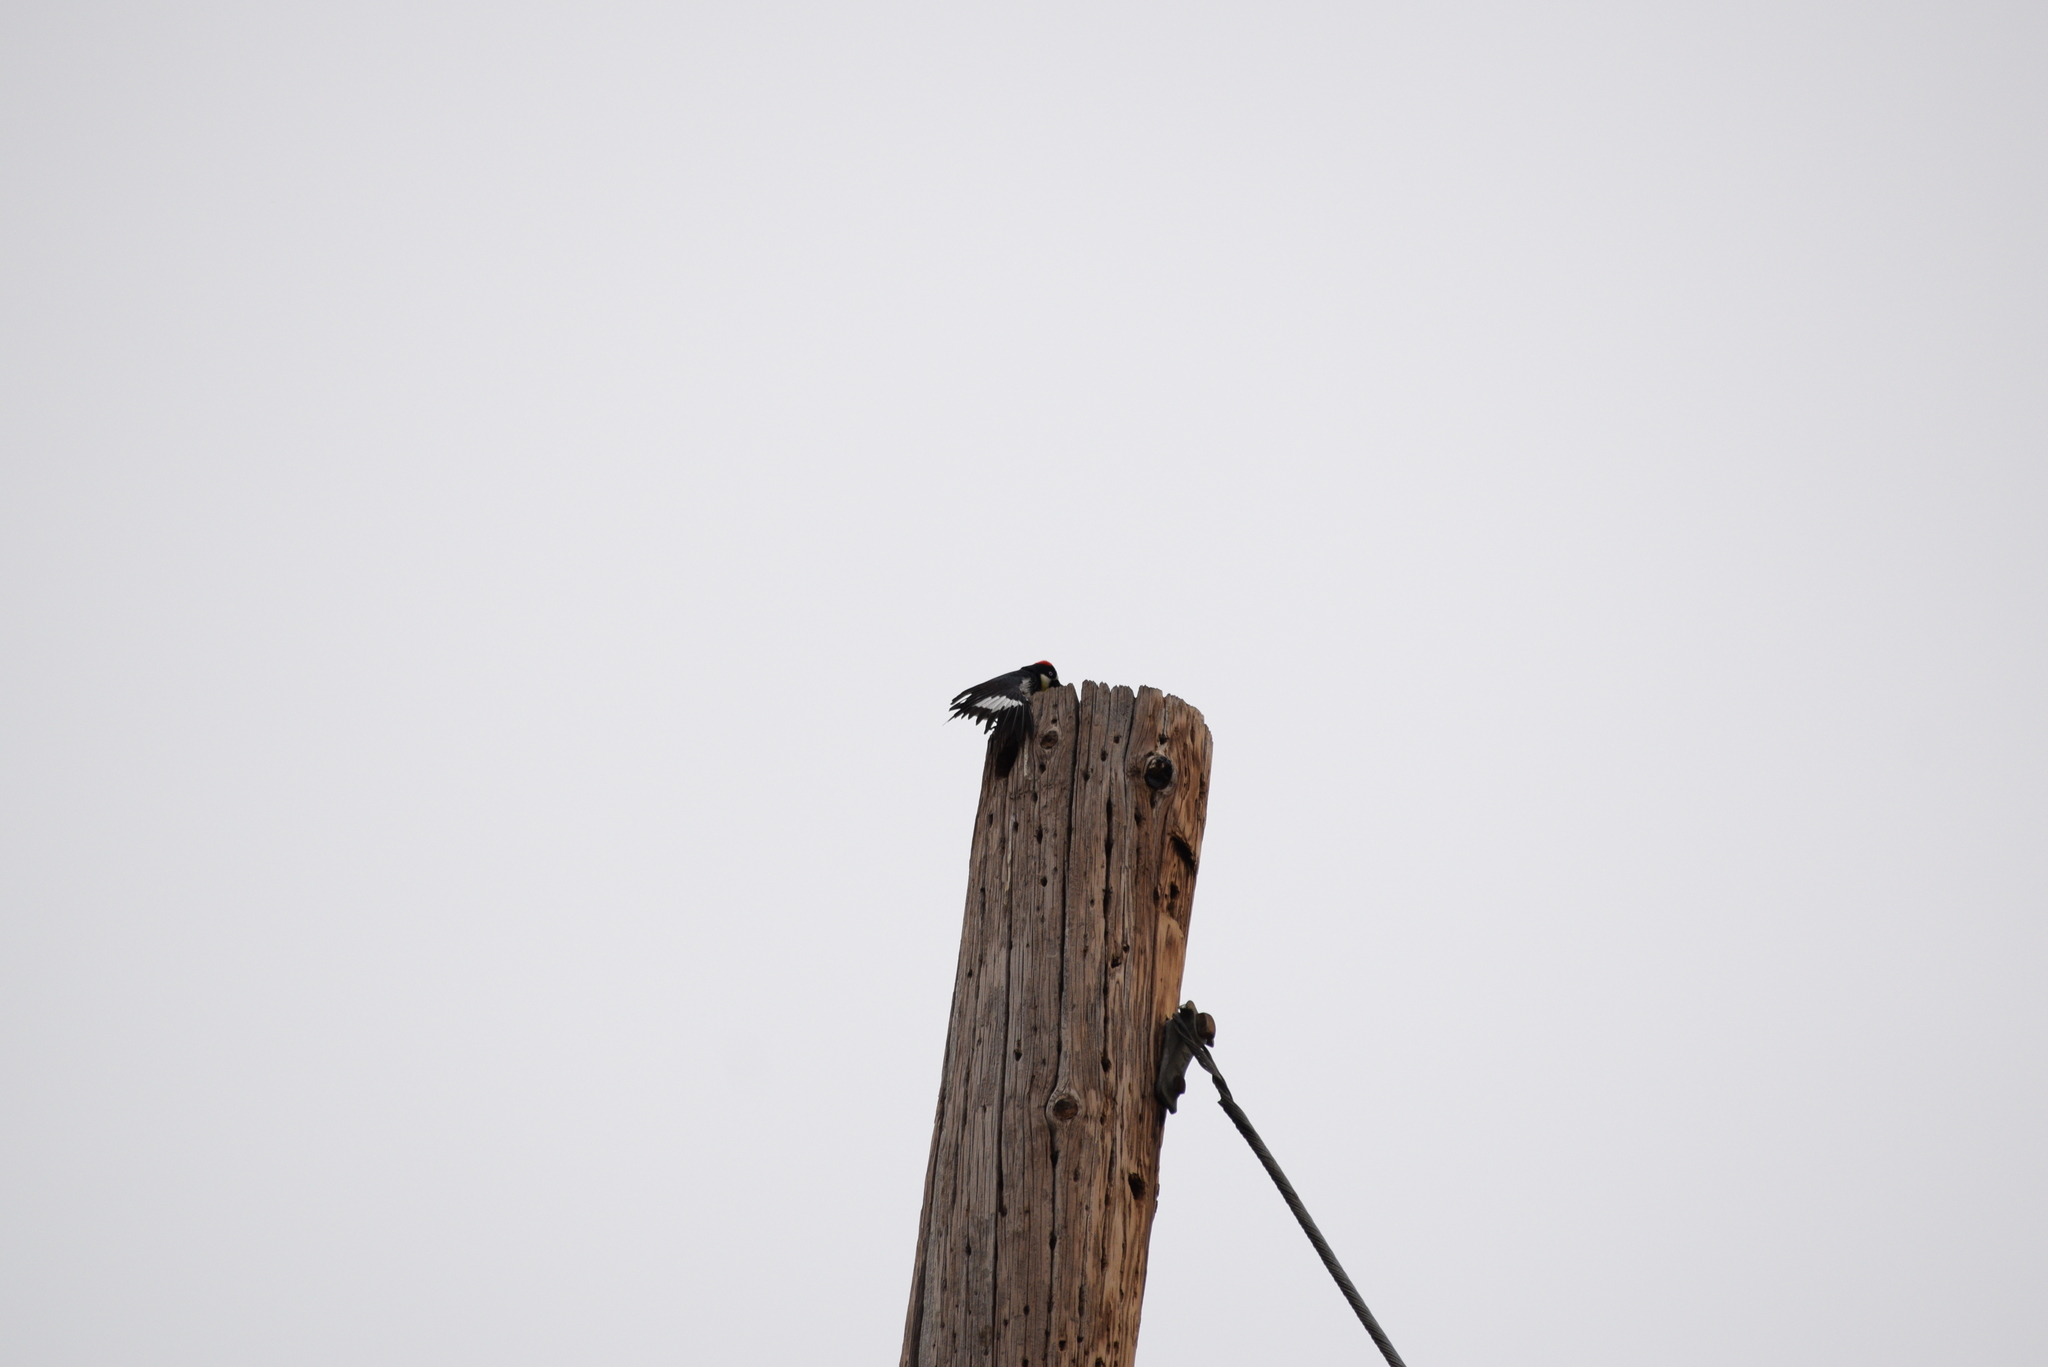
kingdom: Animalia
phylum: Chordata
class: Aves
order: Piciformes
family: Picidae
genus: Melanerpes
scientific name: Melanerpes formicivorus
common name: Acorn woodpecker
